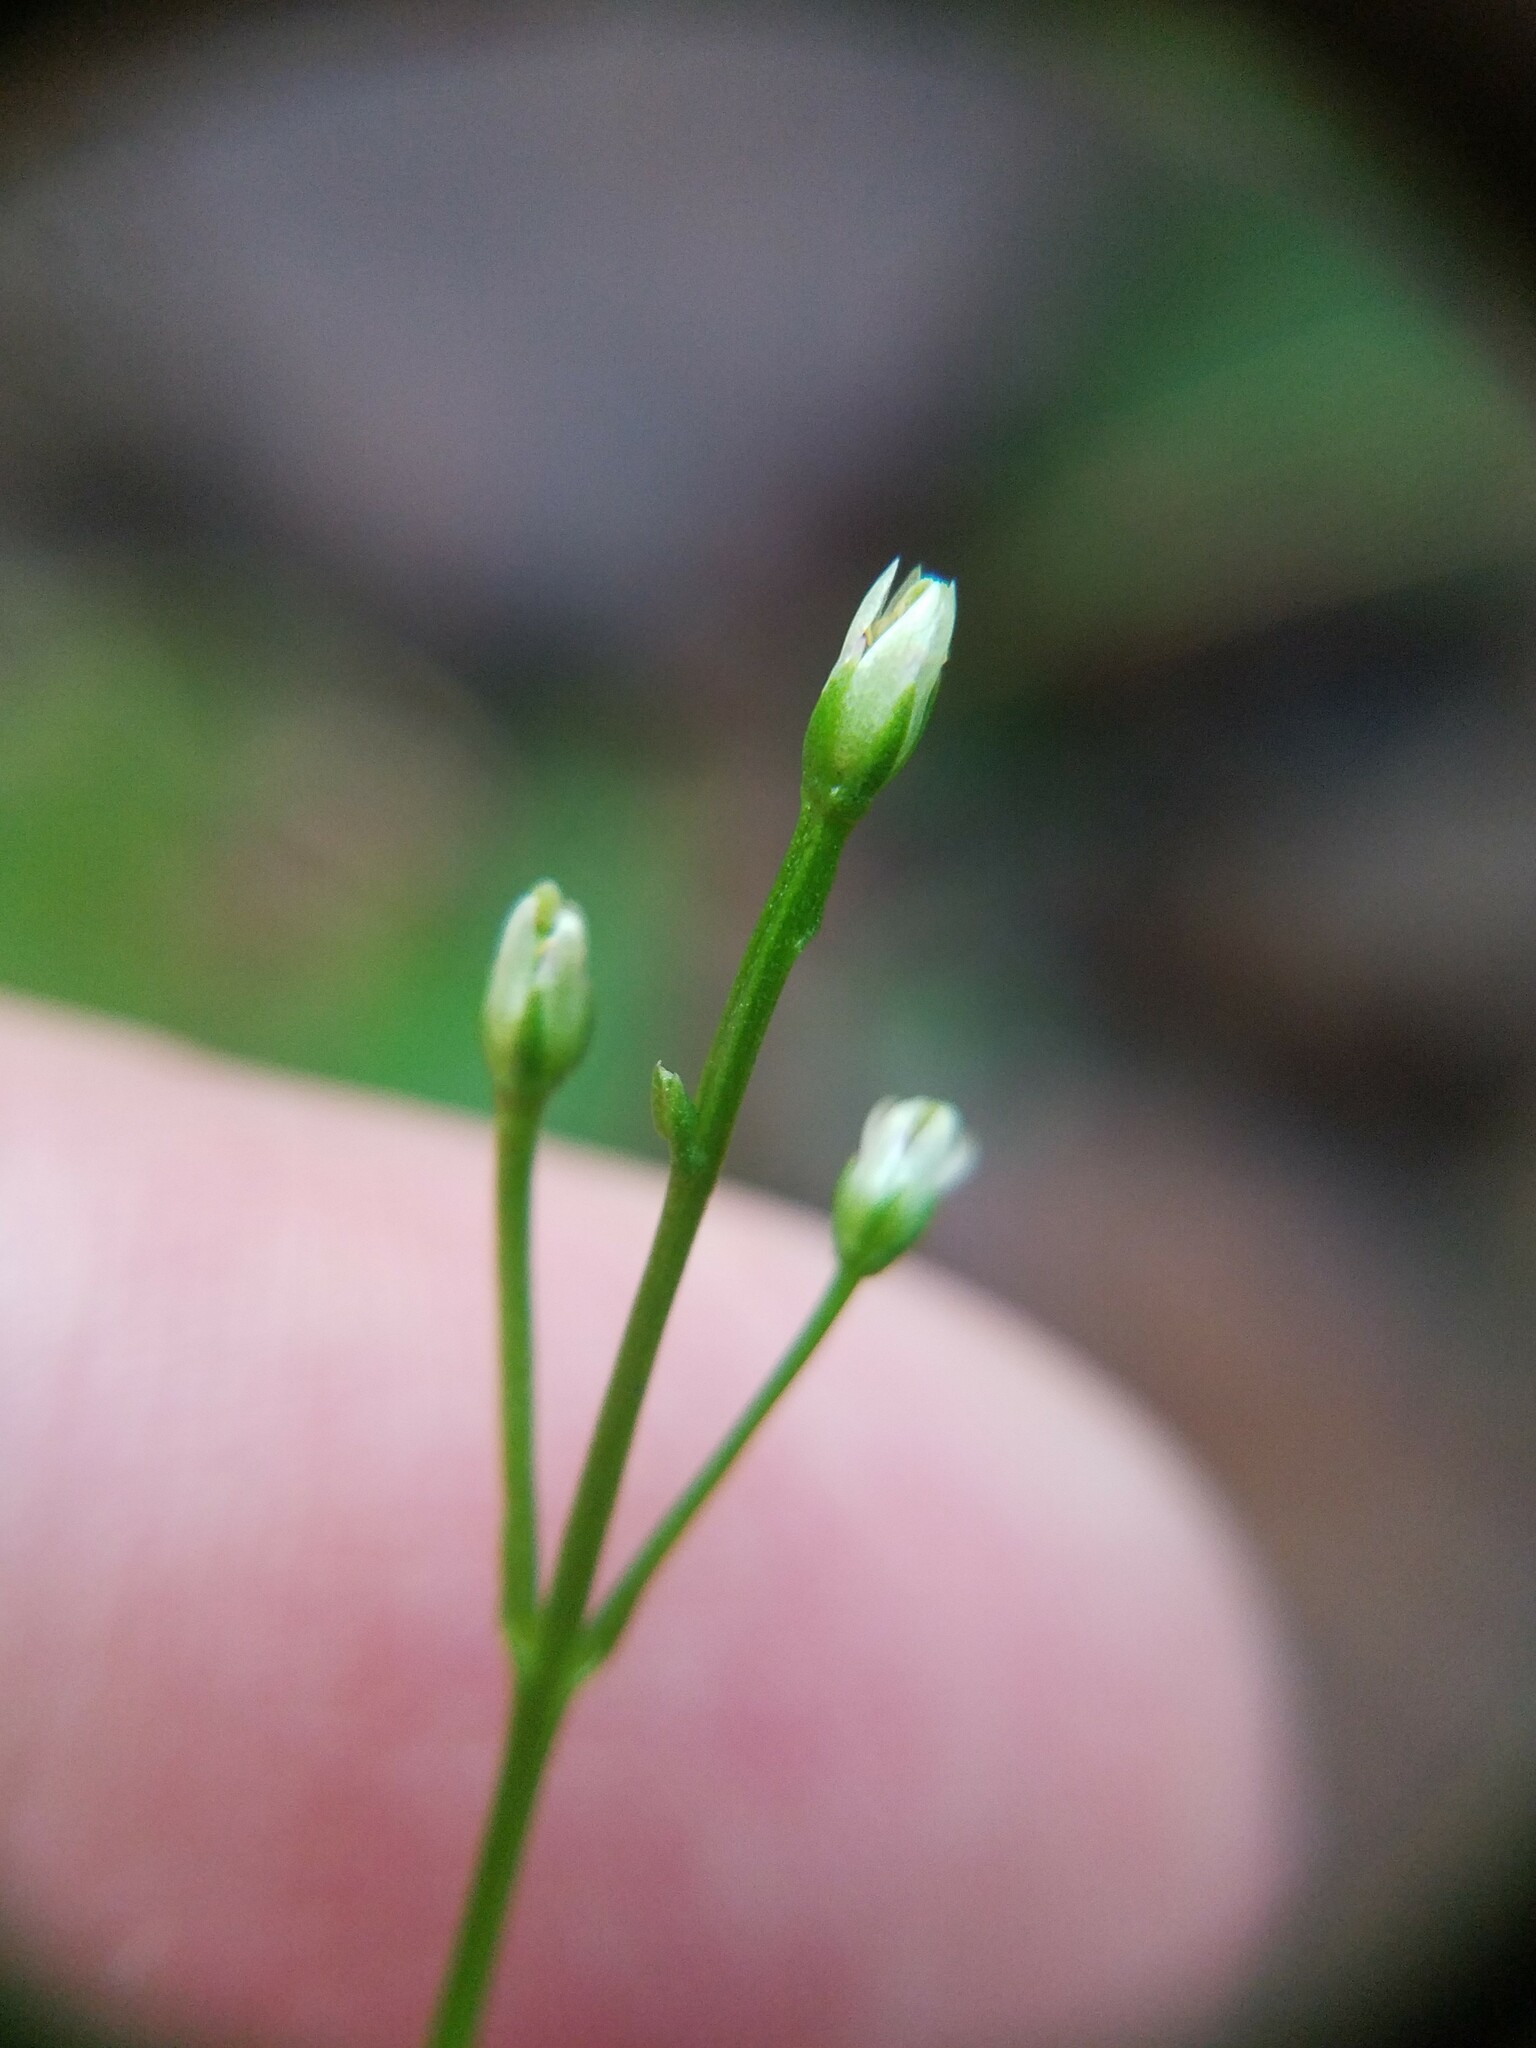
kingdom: Plantae
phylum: Tracheophyta
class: Magnoliopsida
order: Gentianales
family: Gentianaceae
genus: Bartonia
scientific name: Bartonia paniculata
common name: Branched bartonia
